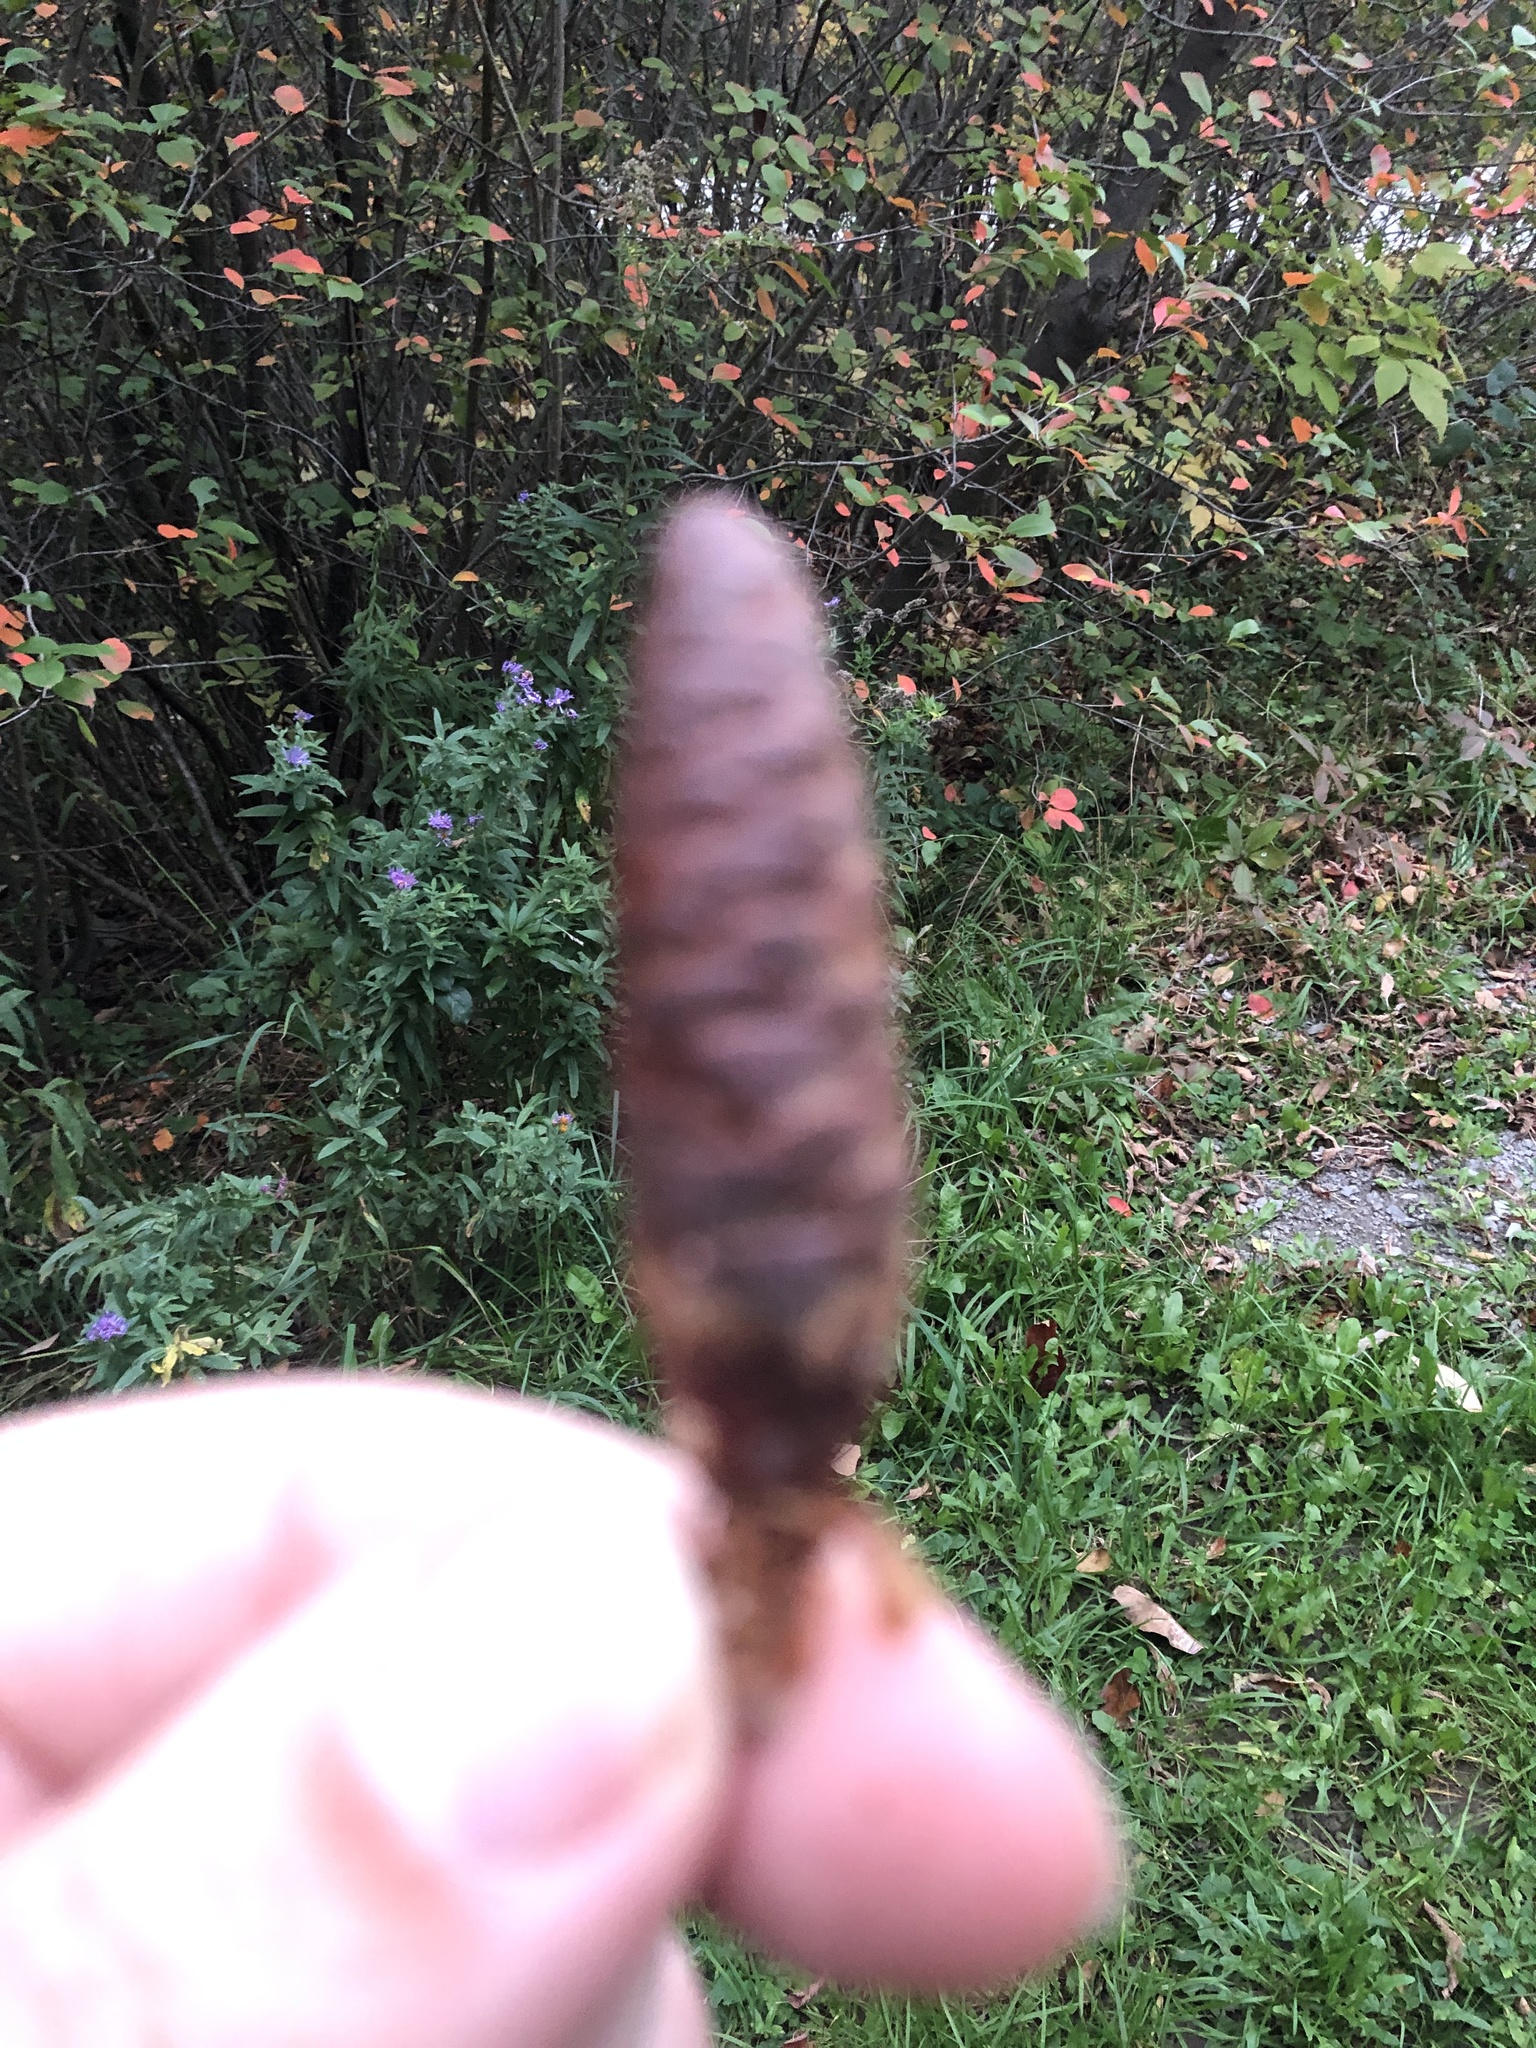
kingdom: Plantae
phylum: Tracheophyta
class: Pinopsida
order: Pinales
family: Pinaceae
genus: Picea
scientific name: Picea glauca
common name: White spruce
